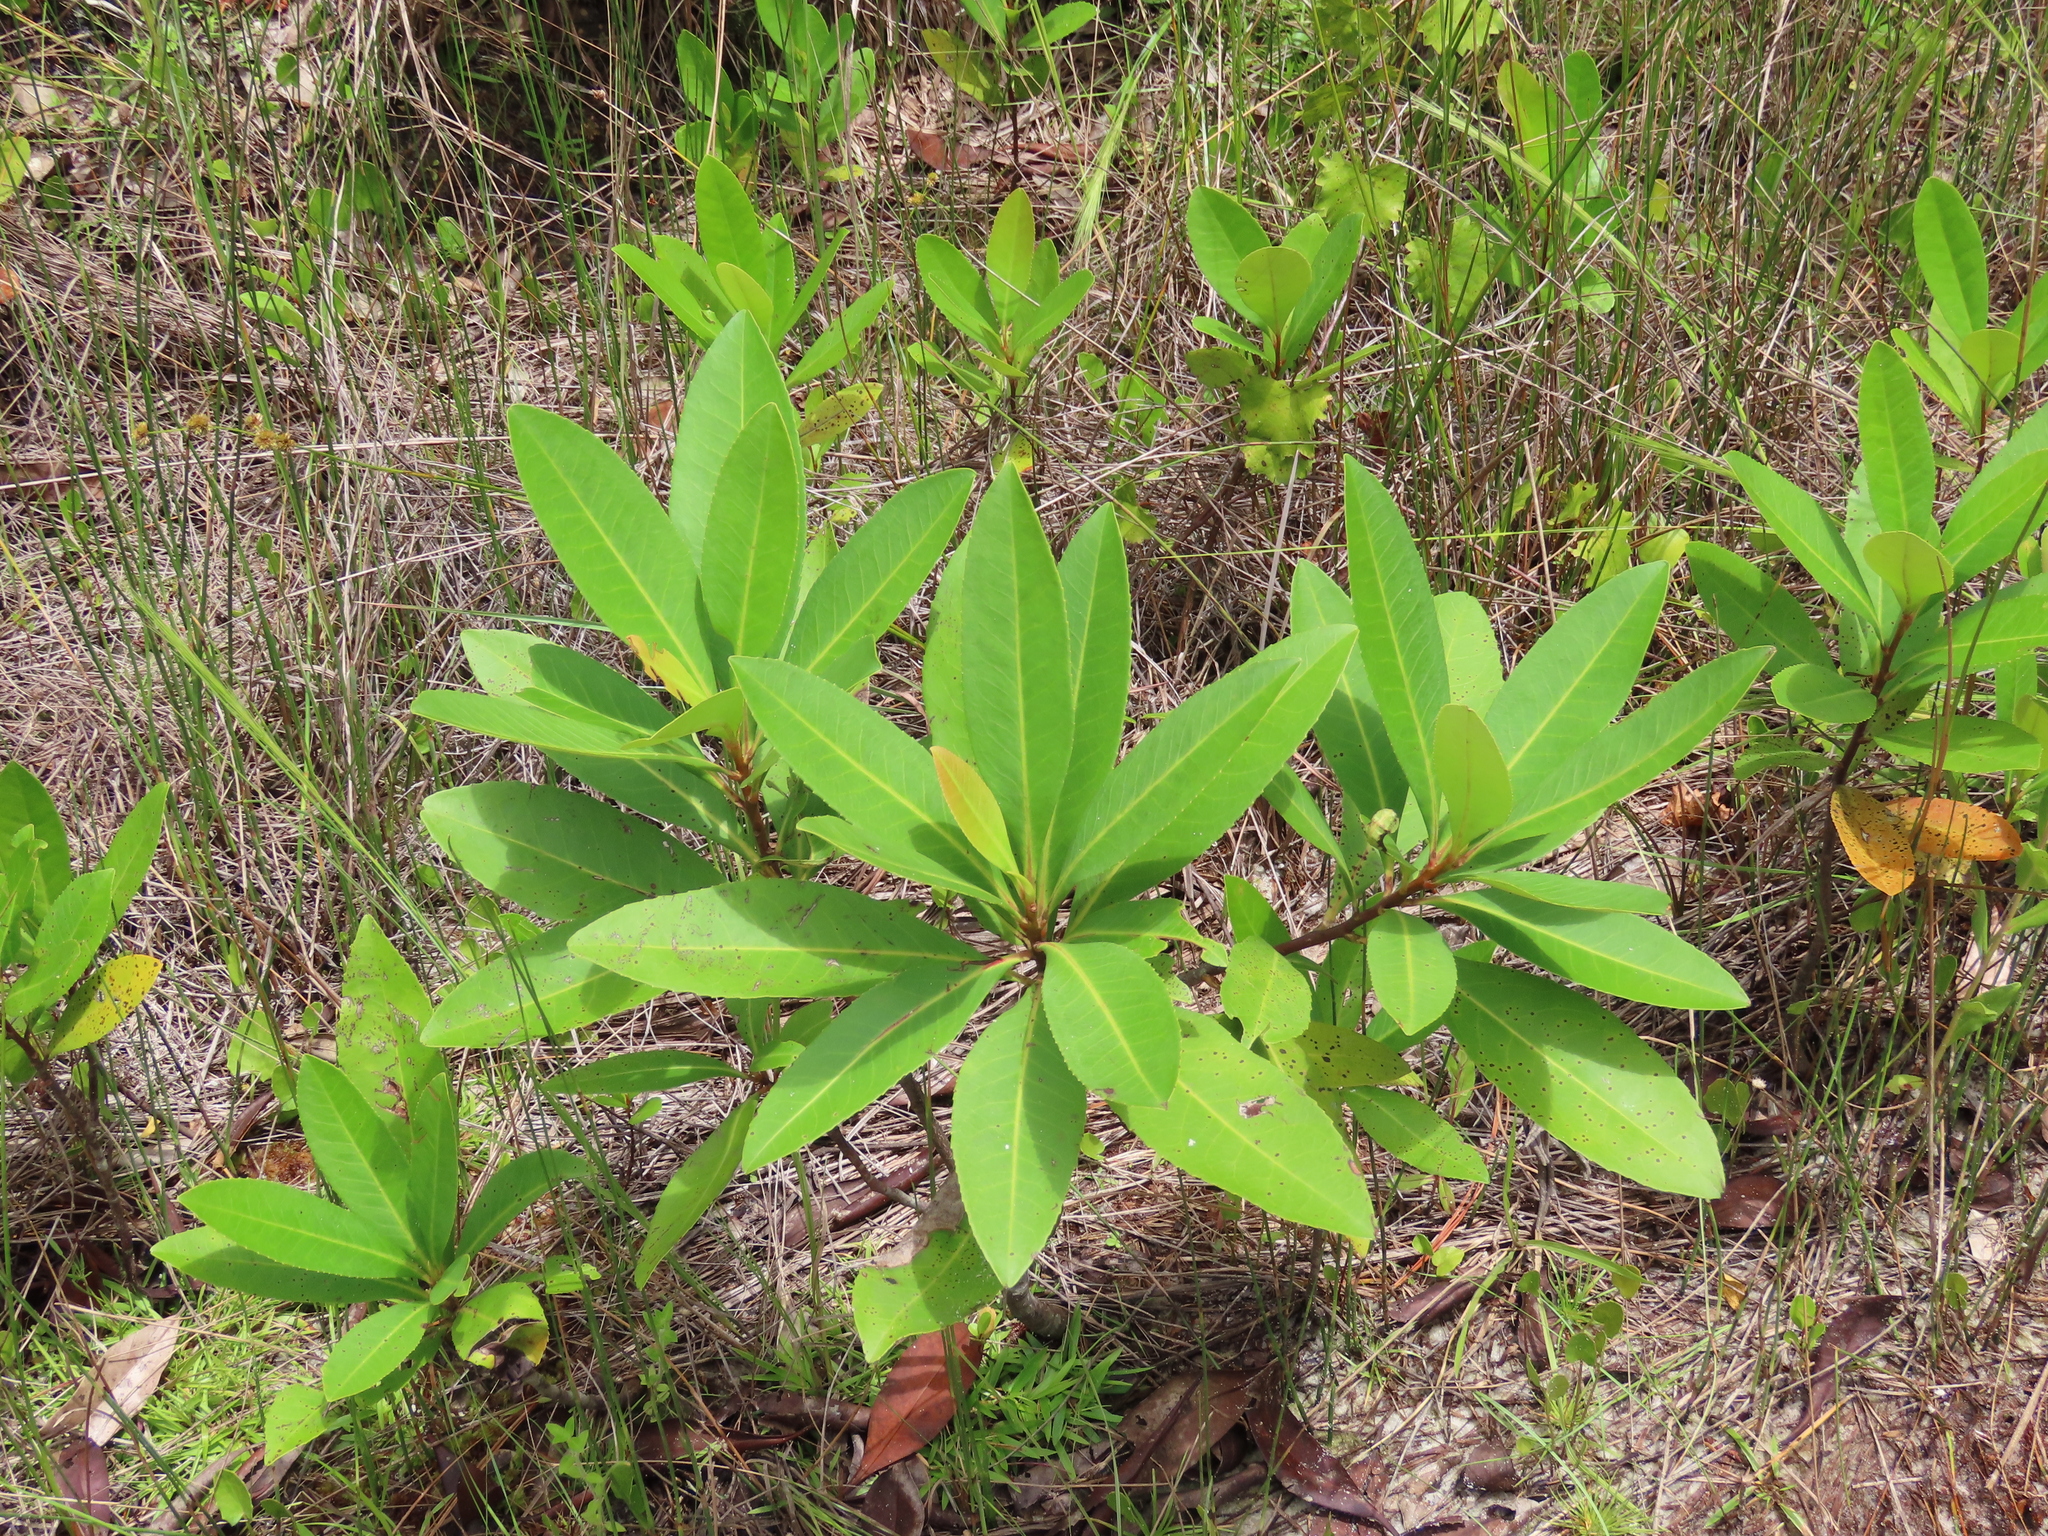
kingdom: Plantae
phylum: Tracheophyta
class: Magnoliopsida
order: Ericales
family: Theaceae
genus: Gordonia
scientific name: Gordonia lasianthus
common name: Loblolly bay
